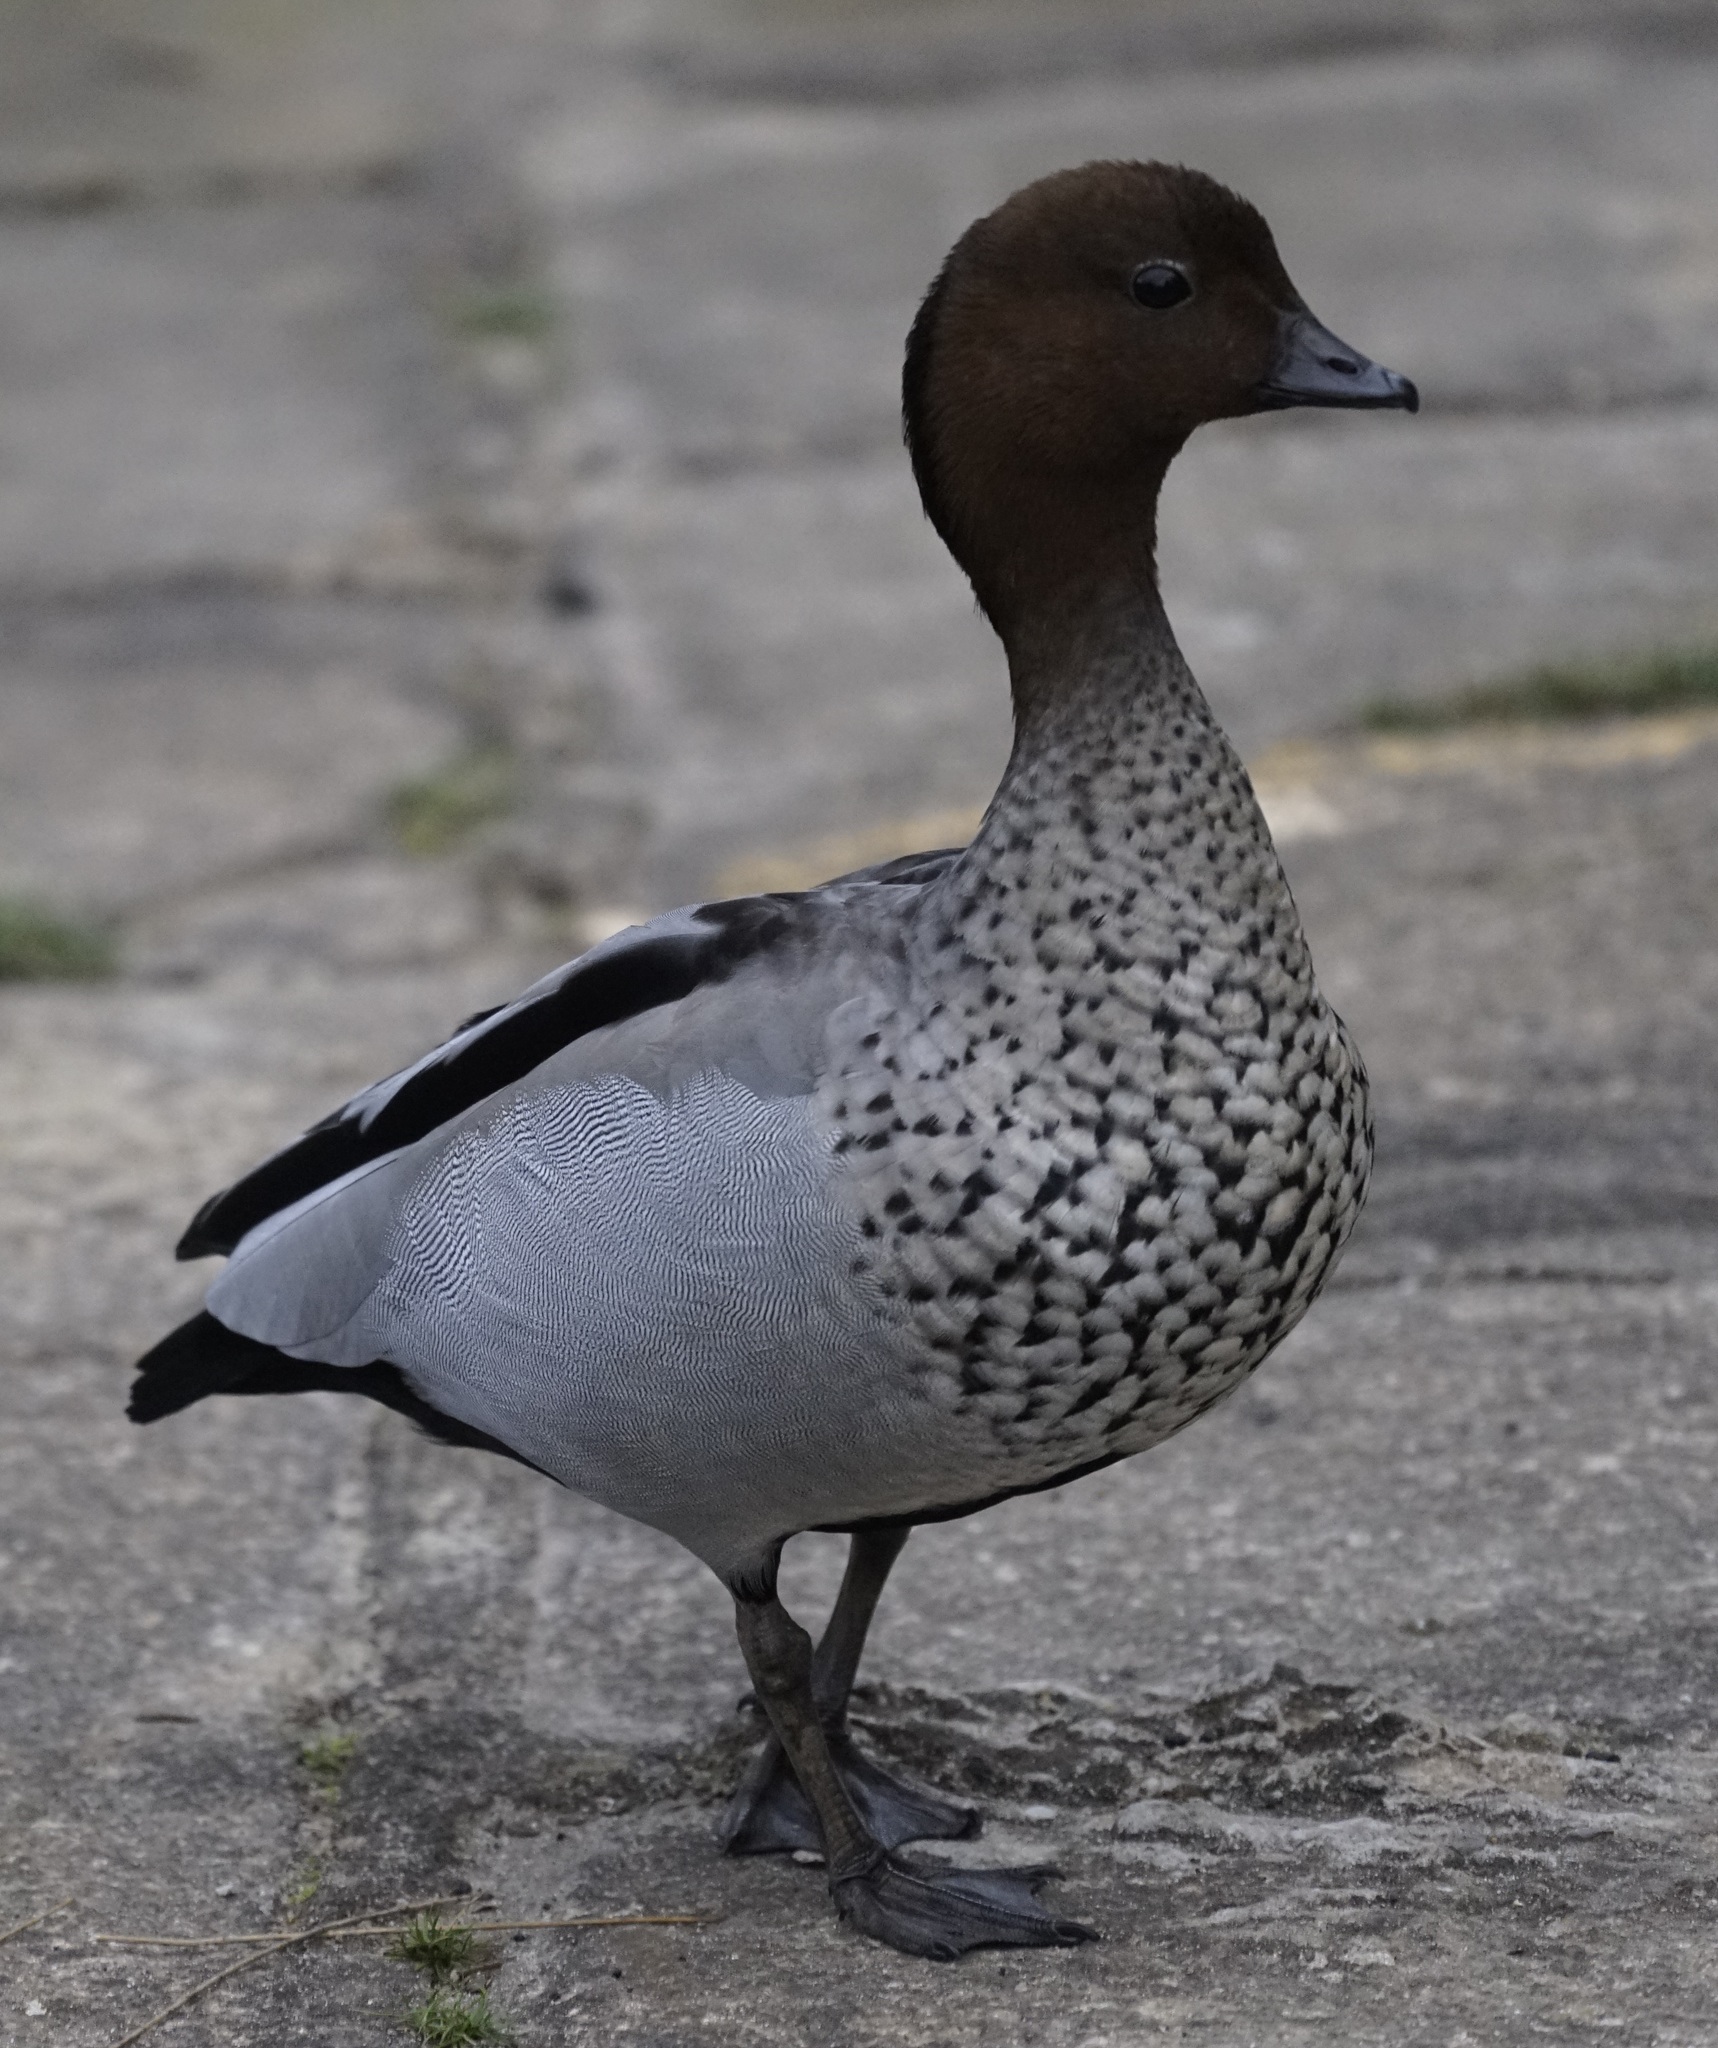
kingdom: Animalia
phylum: Chordata
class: Aves
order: Anseriformes
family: Anatidae
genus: Chenonetta
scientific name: Chenonetta jubata
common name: Maned duck
